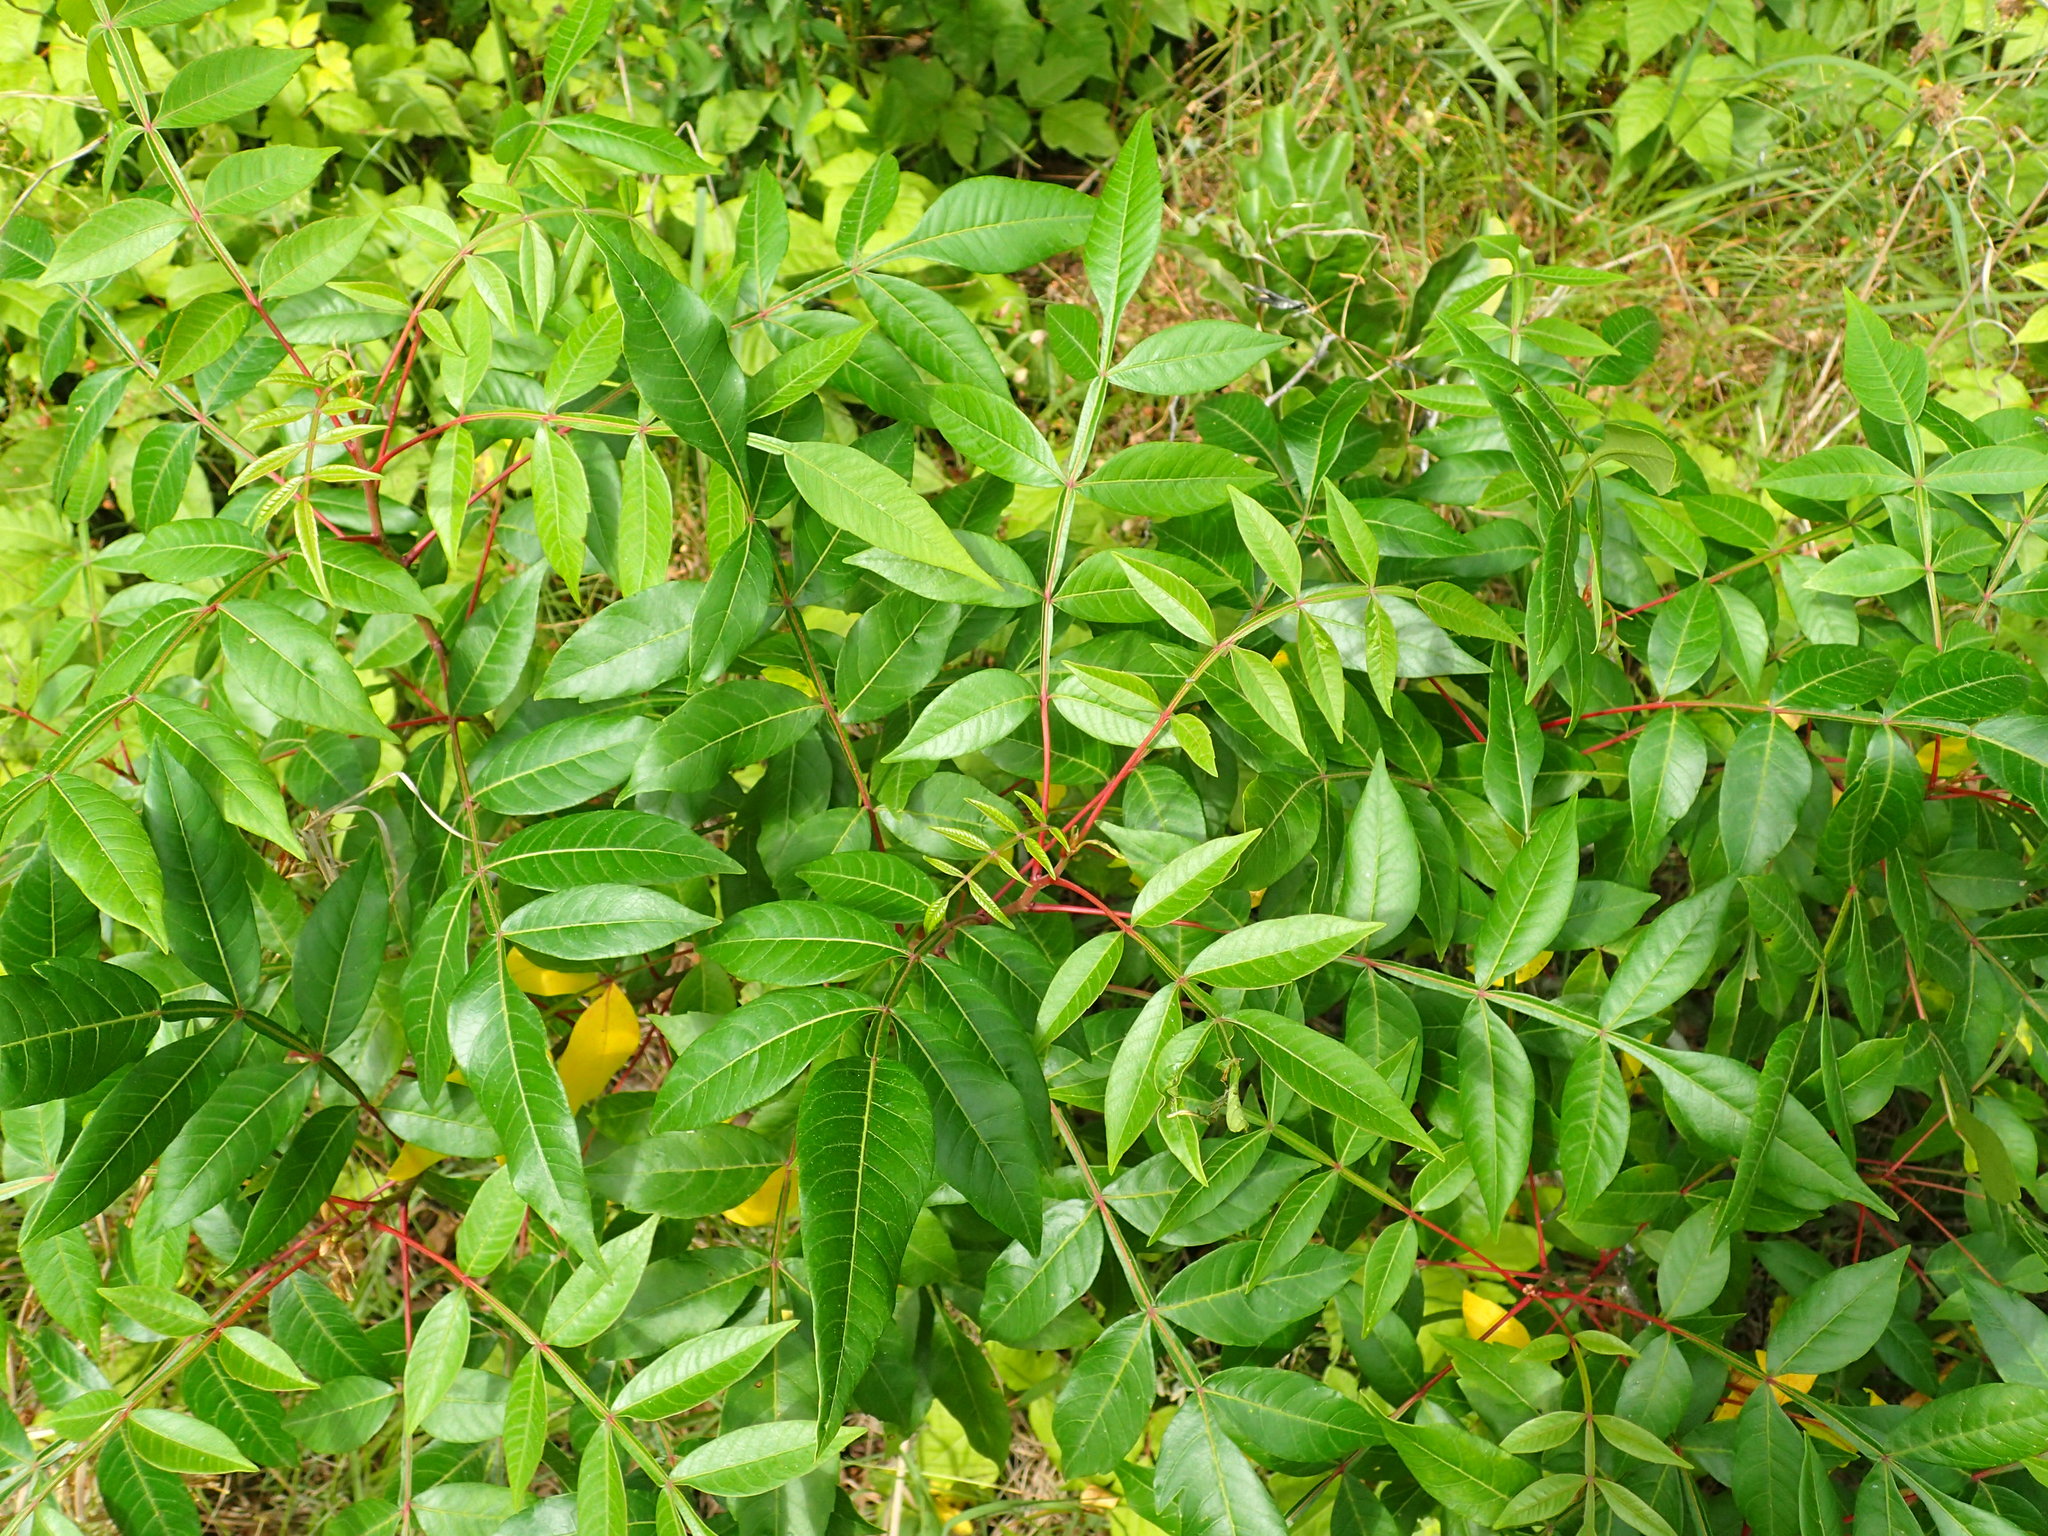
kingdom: Plantae
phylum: Tracheophyta
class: Magnoliopsida
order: Sapindales
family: Anacardiaceae
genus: Rhus
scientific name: Rhus copallina
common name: Shining sumac
